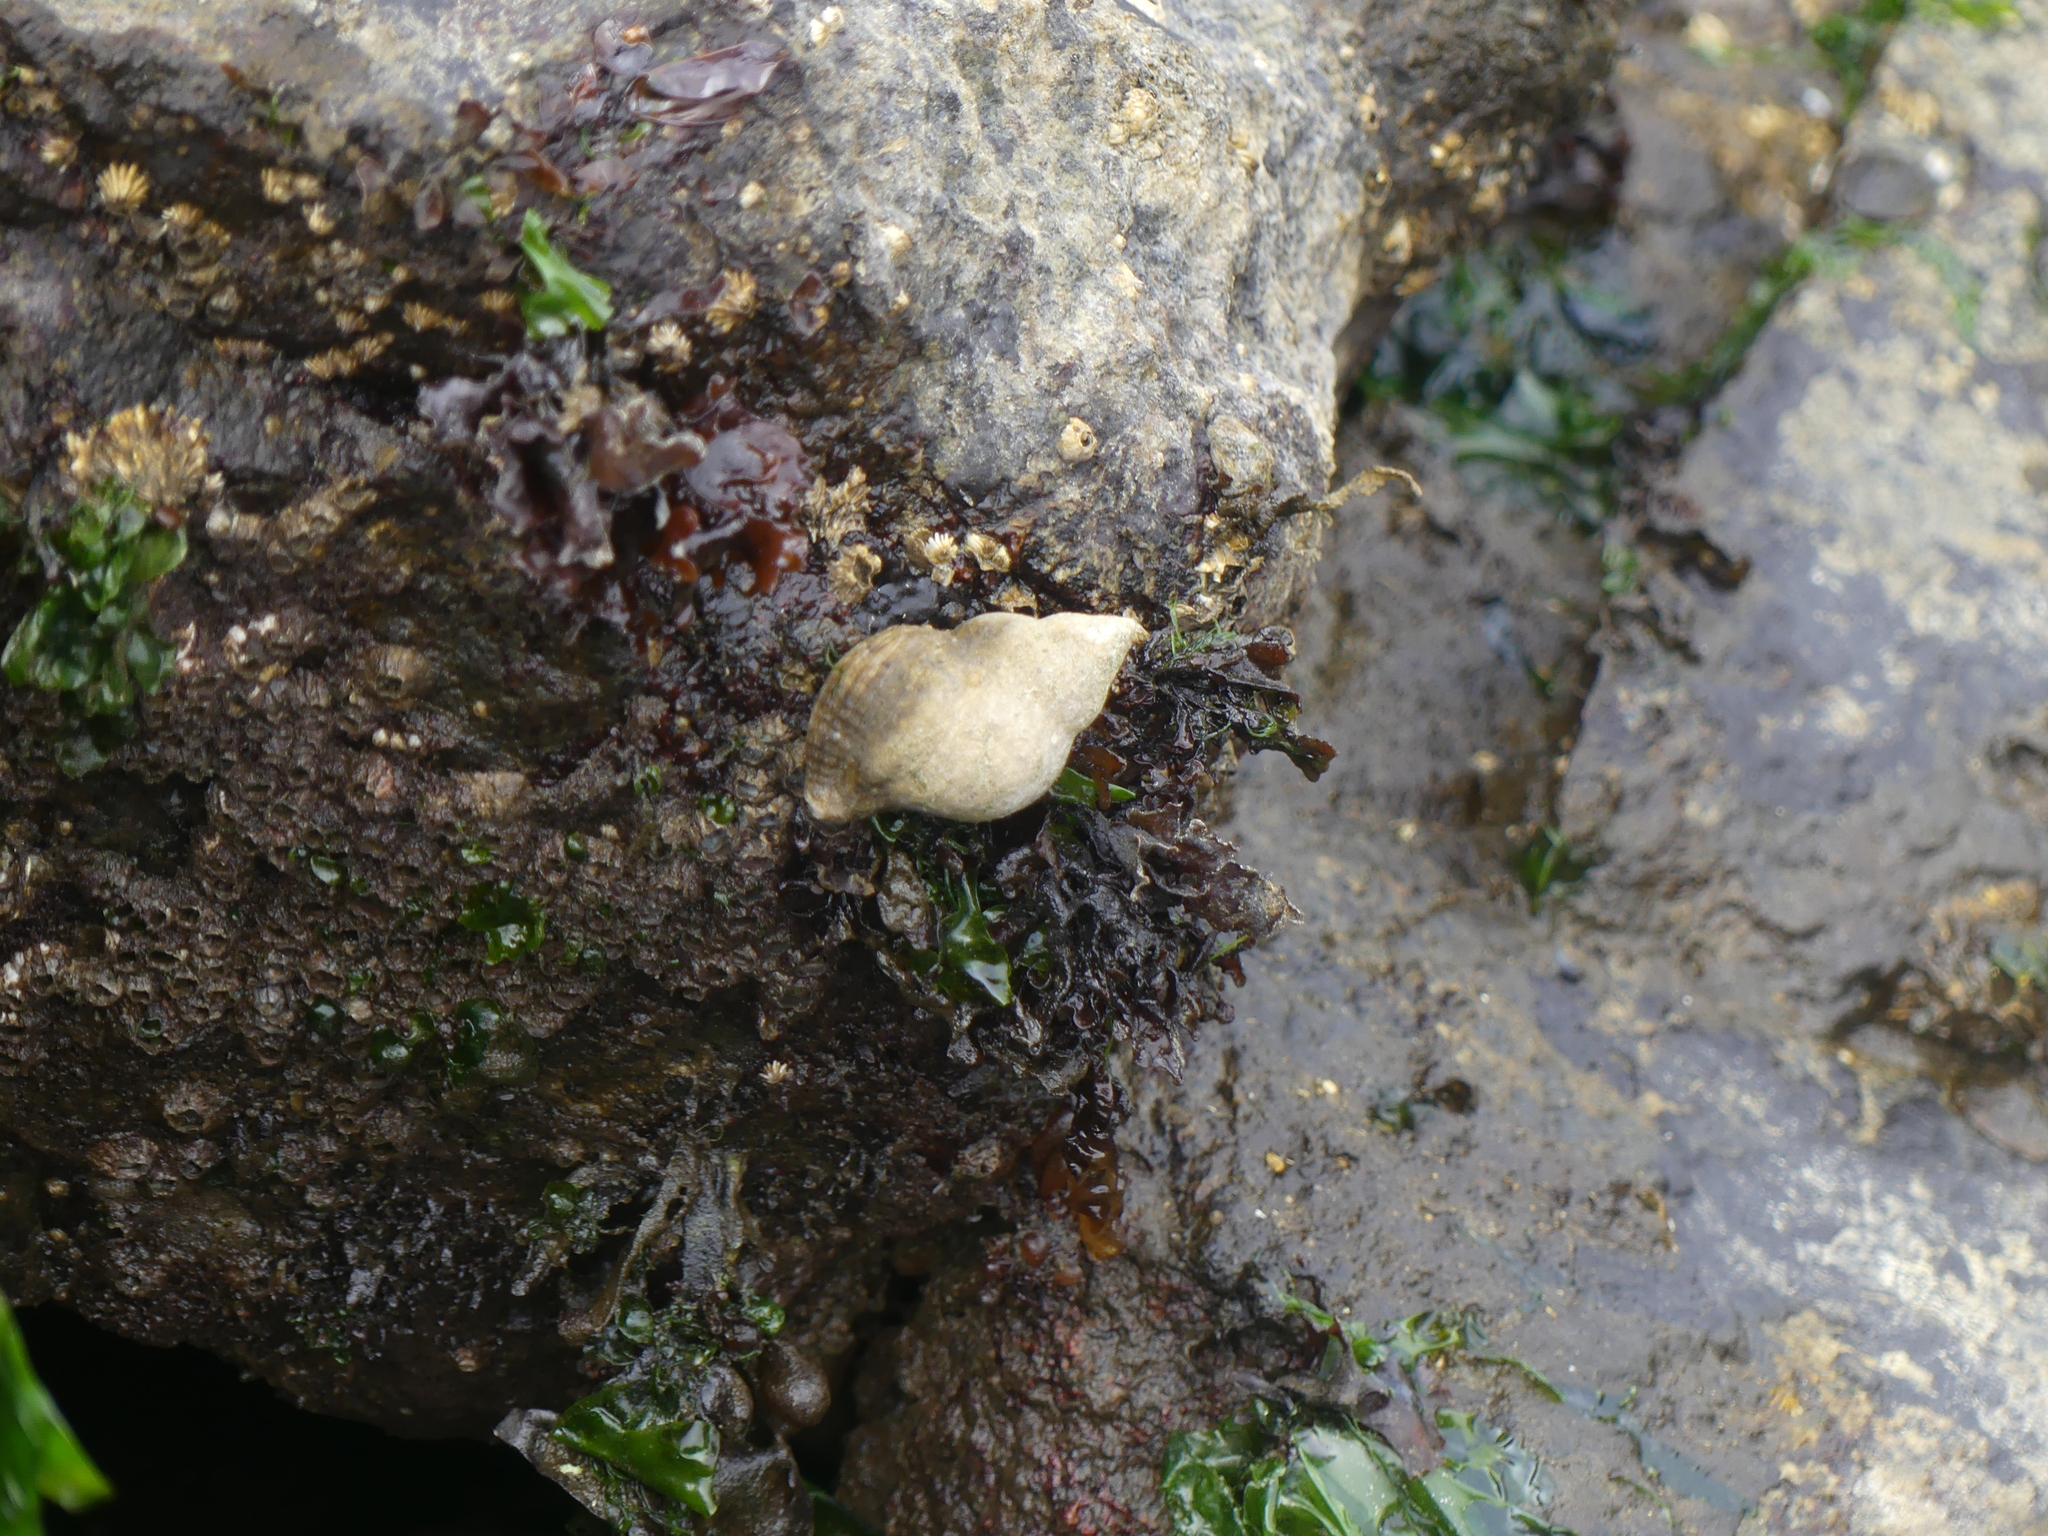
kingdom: Animalia
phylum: Mollusca
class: Gastropoda
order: Neogastropoda
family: Muricidae
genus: Nucella
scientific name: Nucella lamellosa
